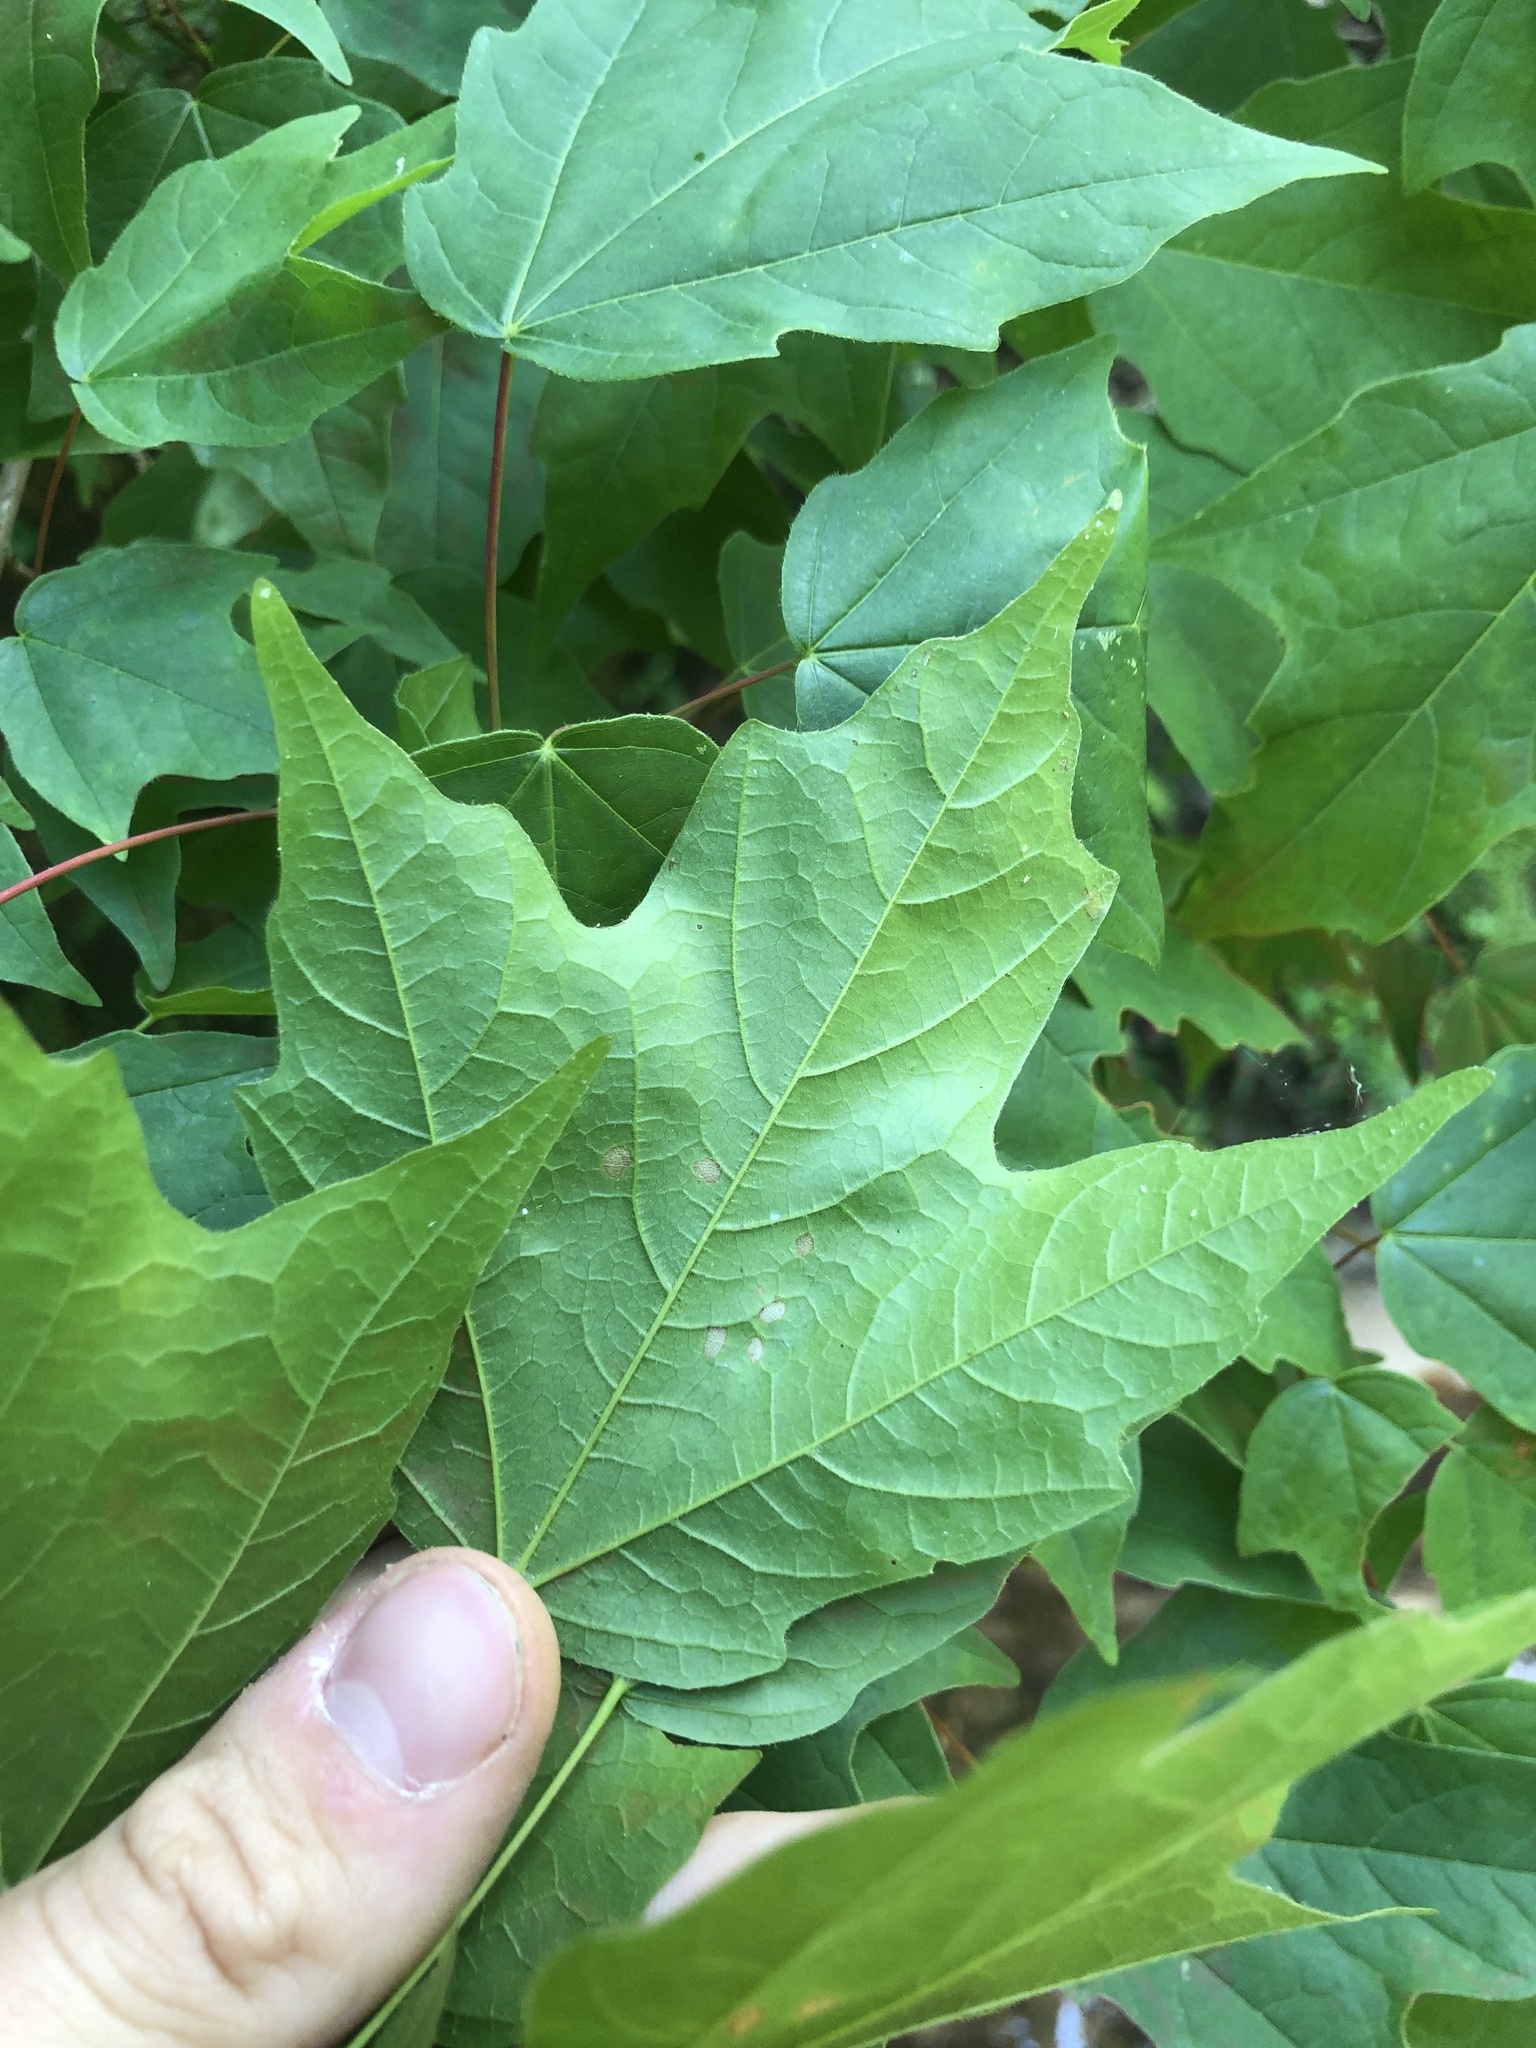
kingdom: Plantae
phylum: Tracheophyta
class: Magnoliopsida
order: Sapindales
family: Sapindaceae
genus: Acer
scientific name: Acer leucoderme
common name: Chalk maple
